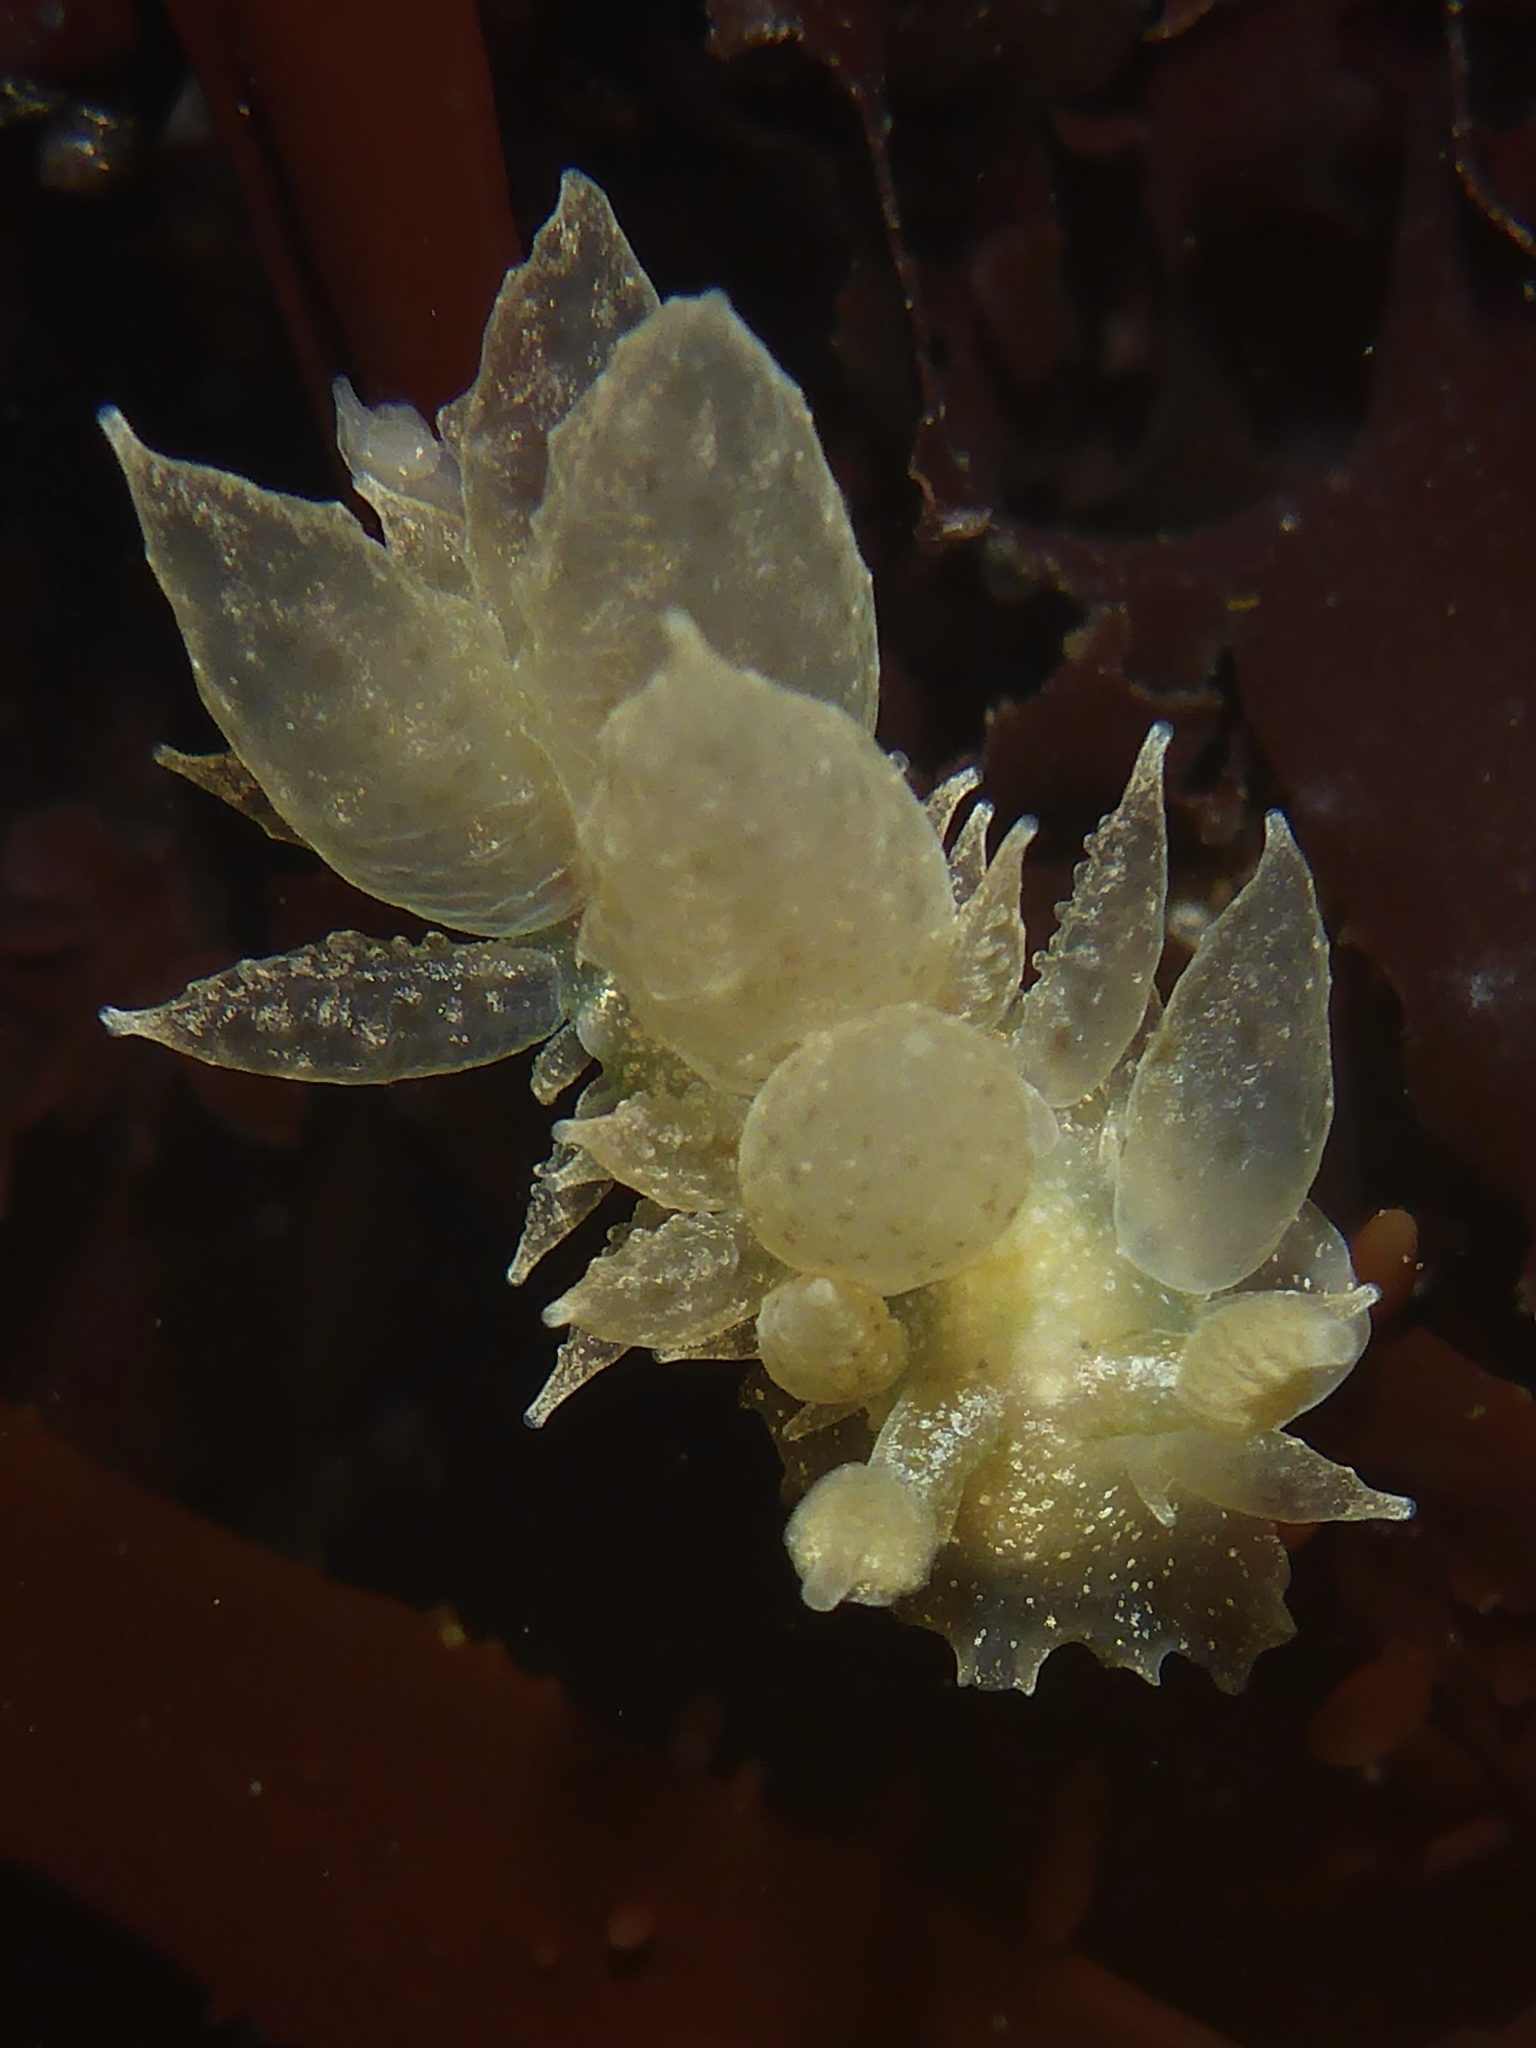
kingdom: Animalia
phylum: Mollusca
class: Gastropoda
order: Nudibranchia
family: Dironidae
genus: Dirona
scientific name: Dirona picta
